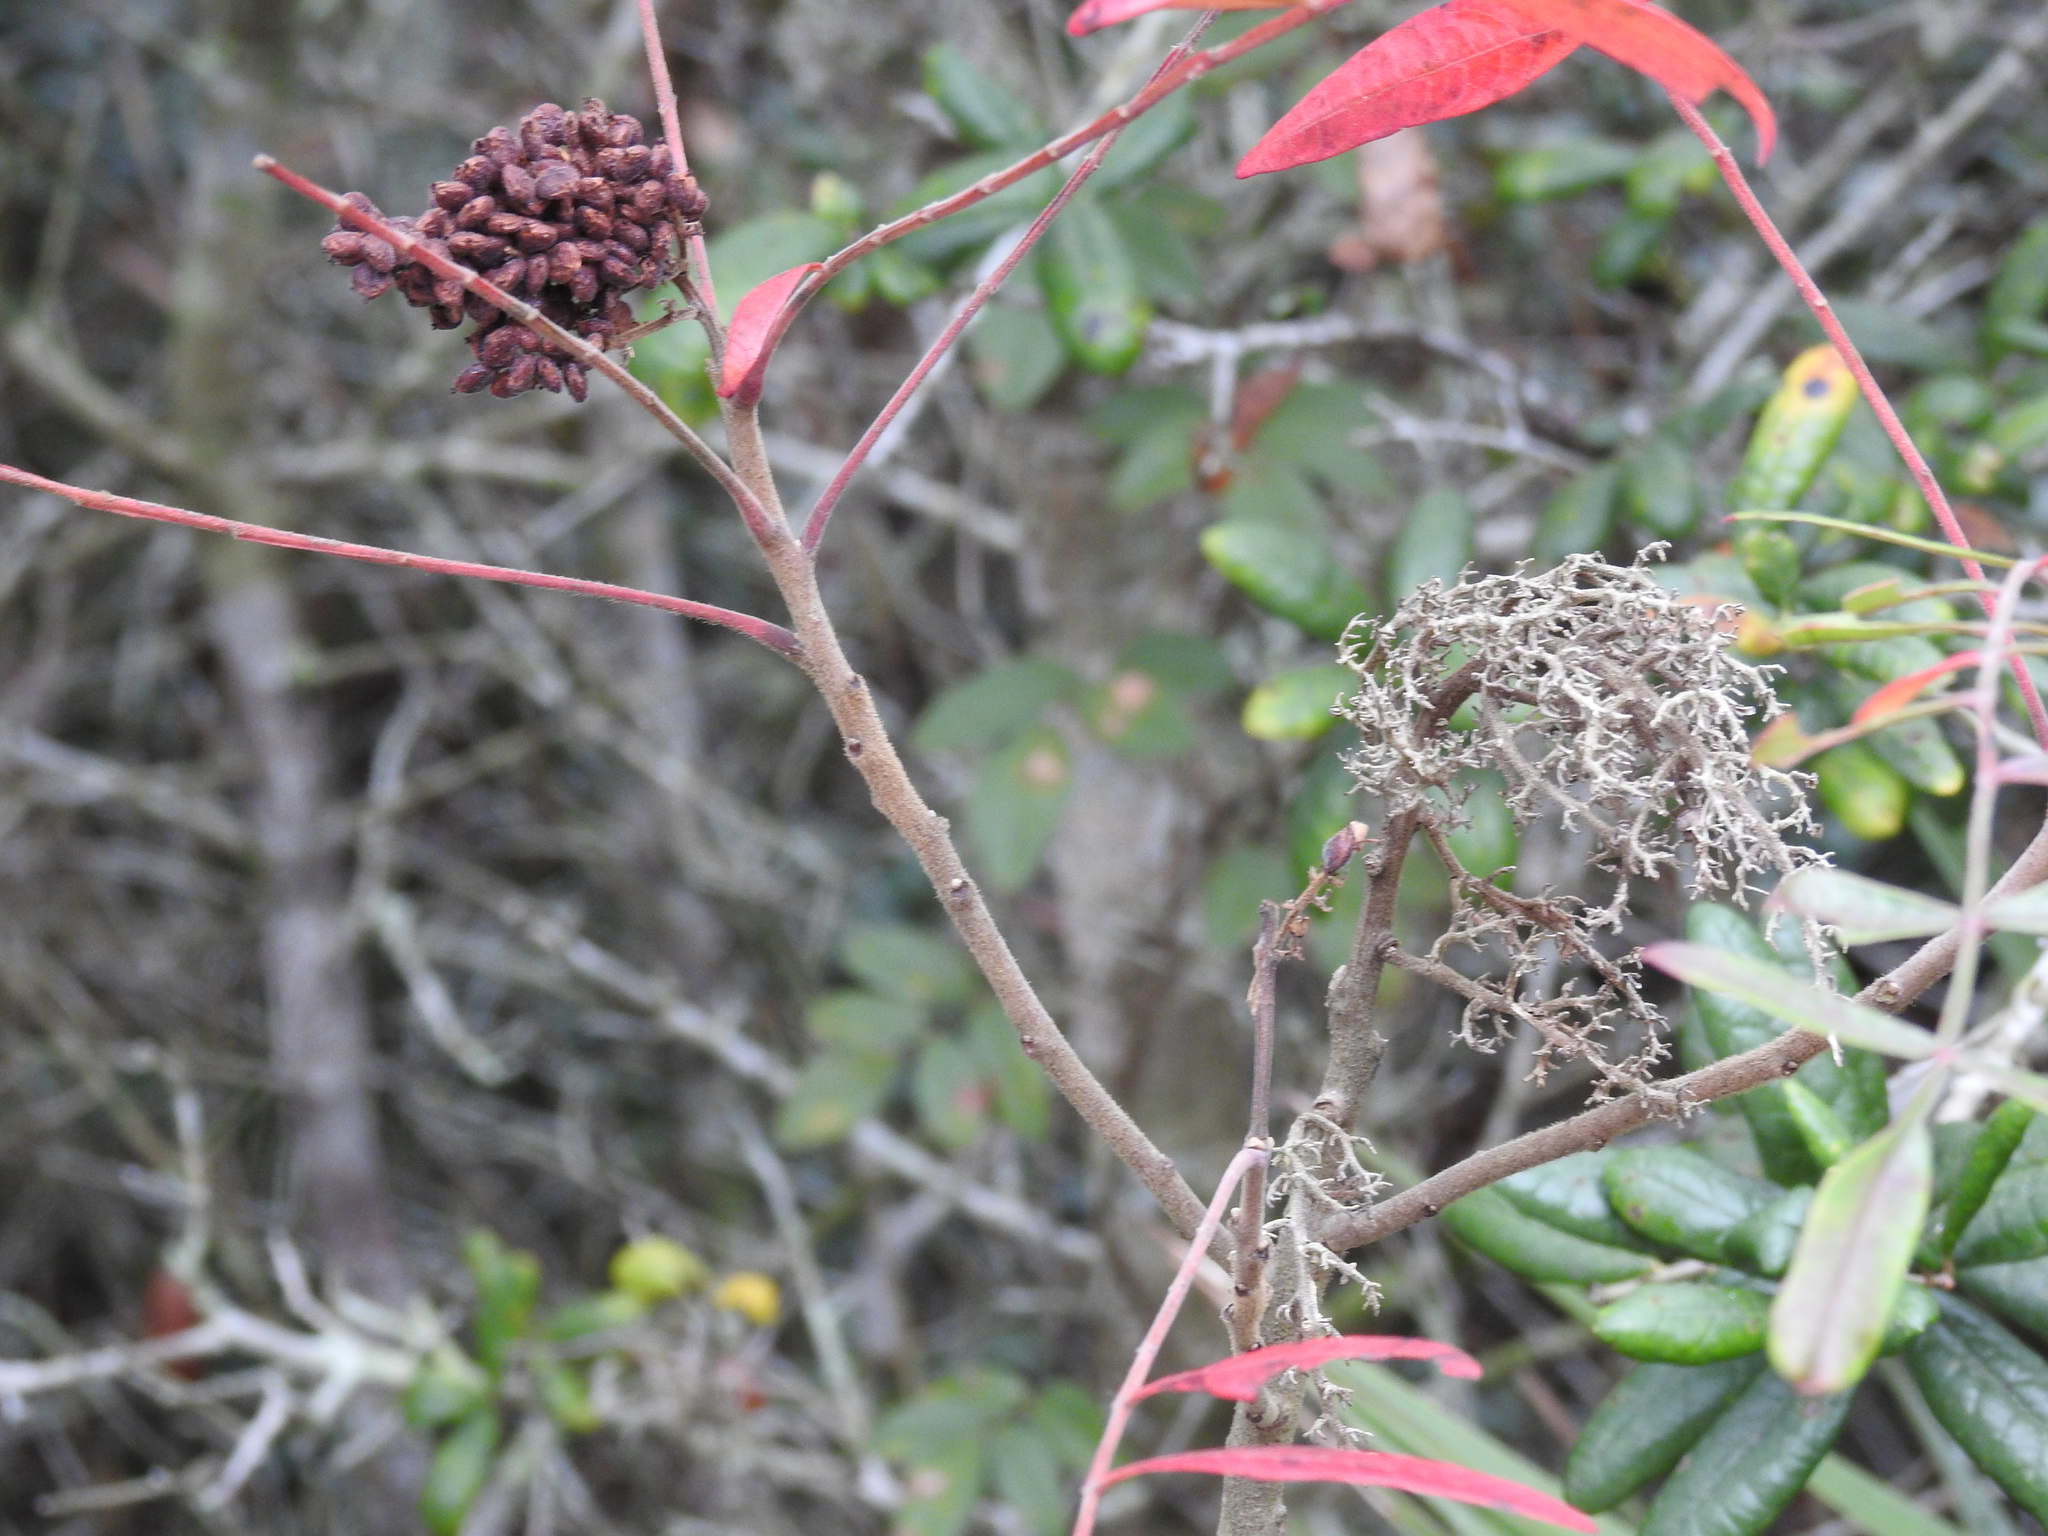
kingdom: Plantae
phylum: Tracheophyta
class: Magnoliopsida
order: Sapindales
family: Anacardiaceae
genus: Rhus
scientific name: Rhus copallina
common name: Shining sumac
